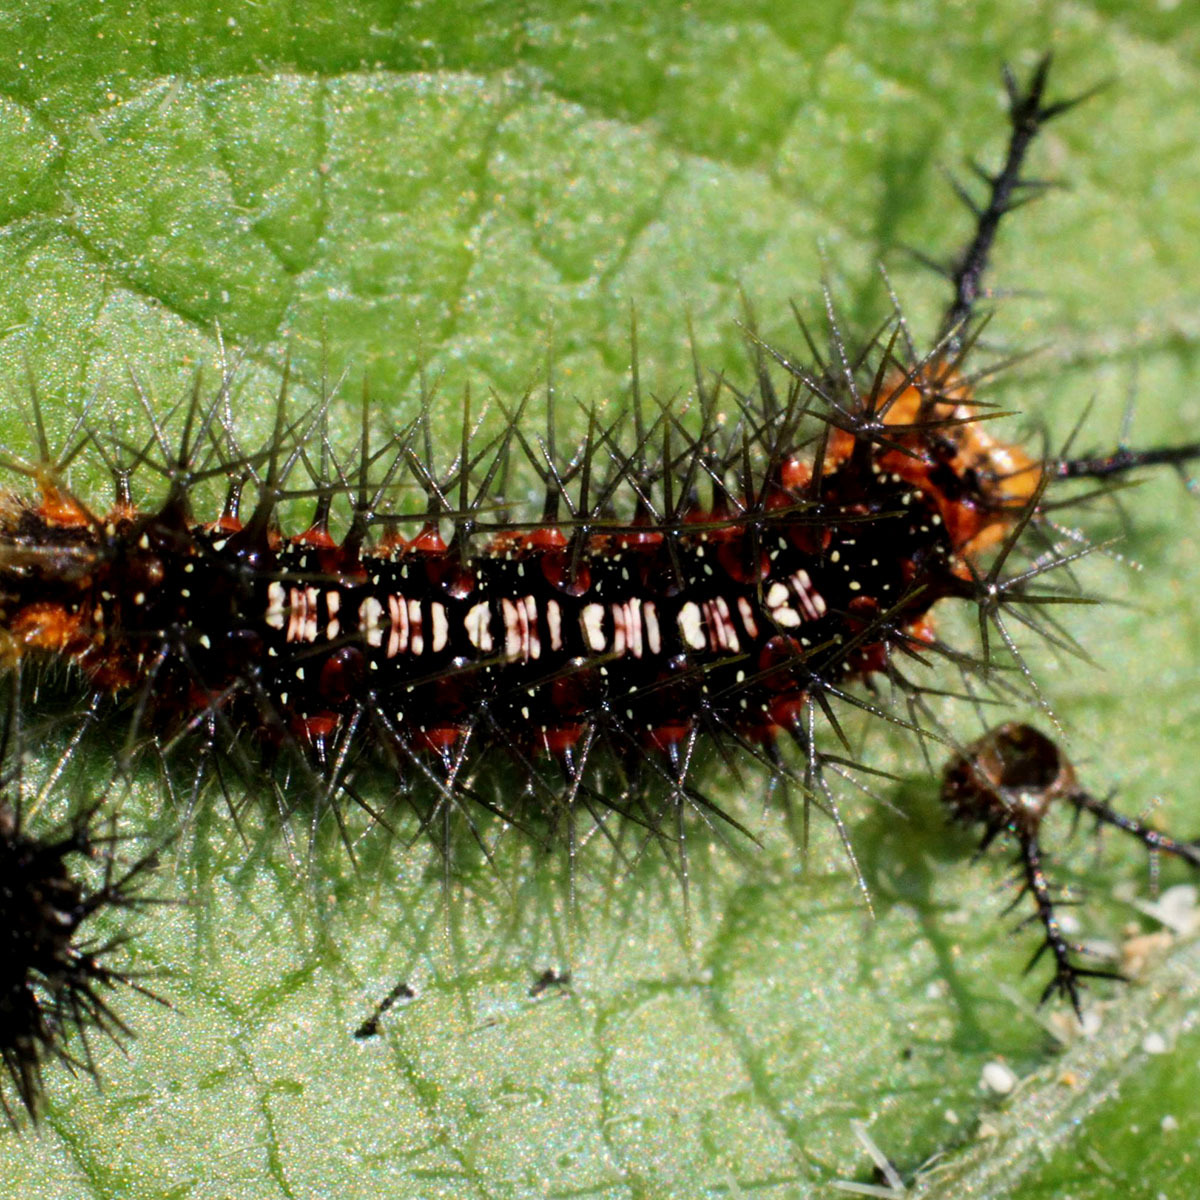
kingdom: Animalia
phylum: Arthropoda
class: Insecta
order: Lepidoptera
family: Nymphalidae
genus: Ariadne
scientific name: Ariadne ariadne
